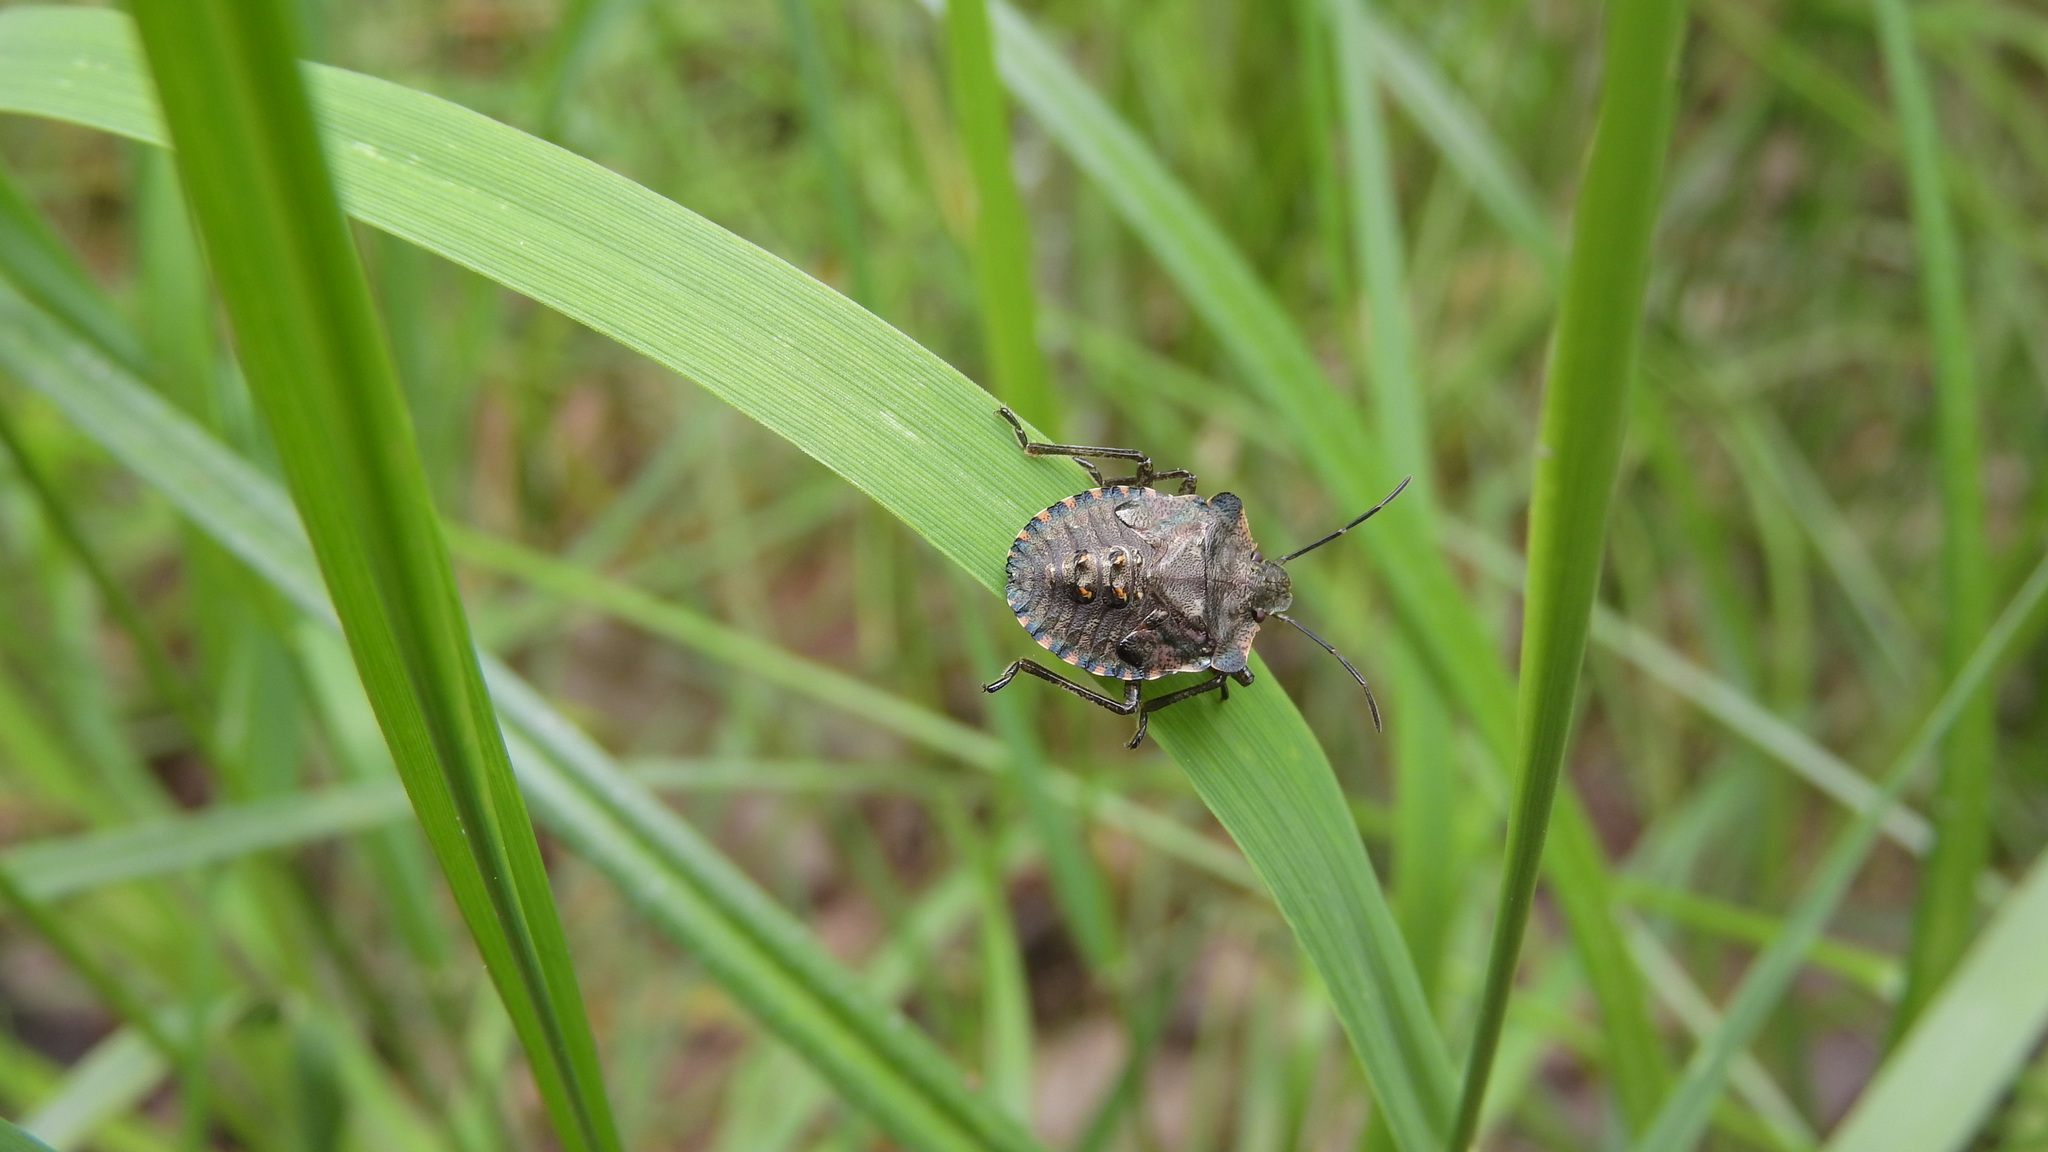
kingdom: Animalia
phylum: Arthropoda
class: Insecta
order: Hemiptera
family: Pentatomidae
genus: Pentatoma
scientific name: Pentatoma rufipes
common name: Forest bug
